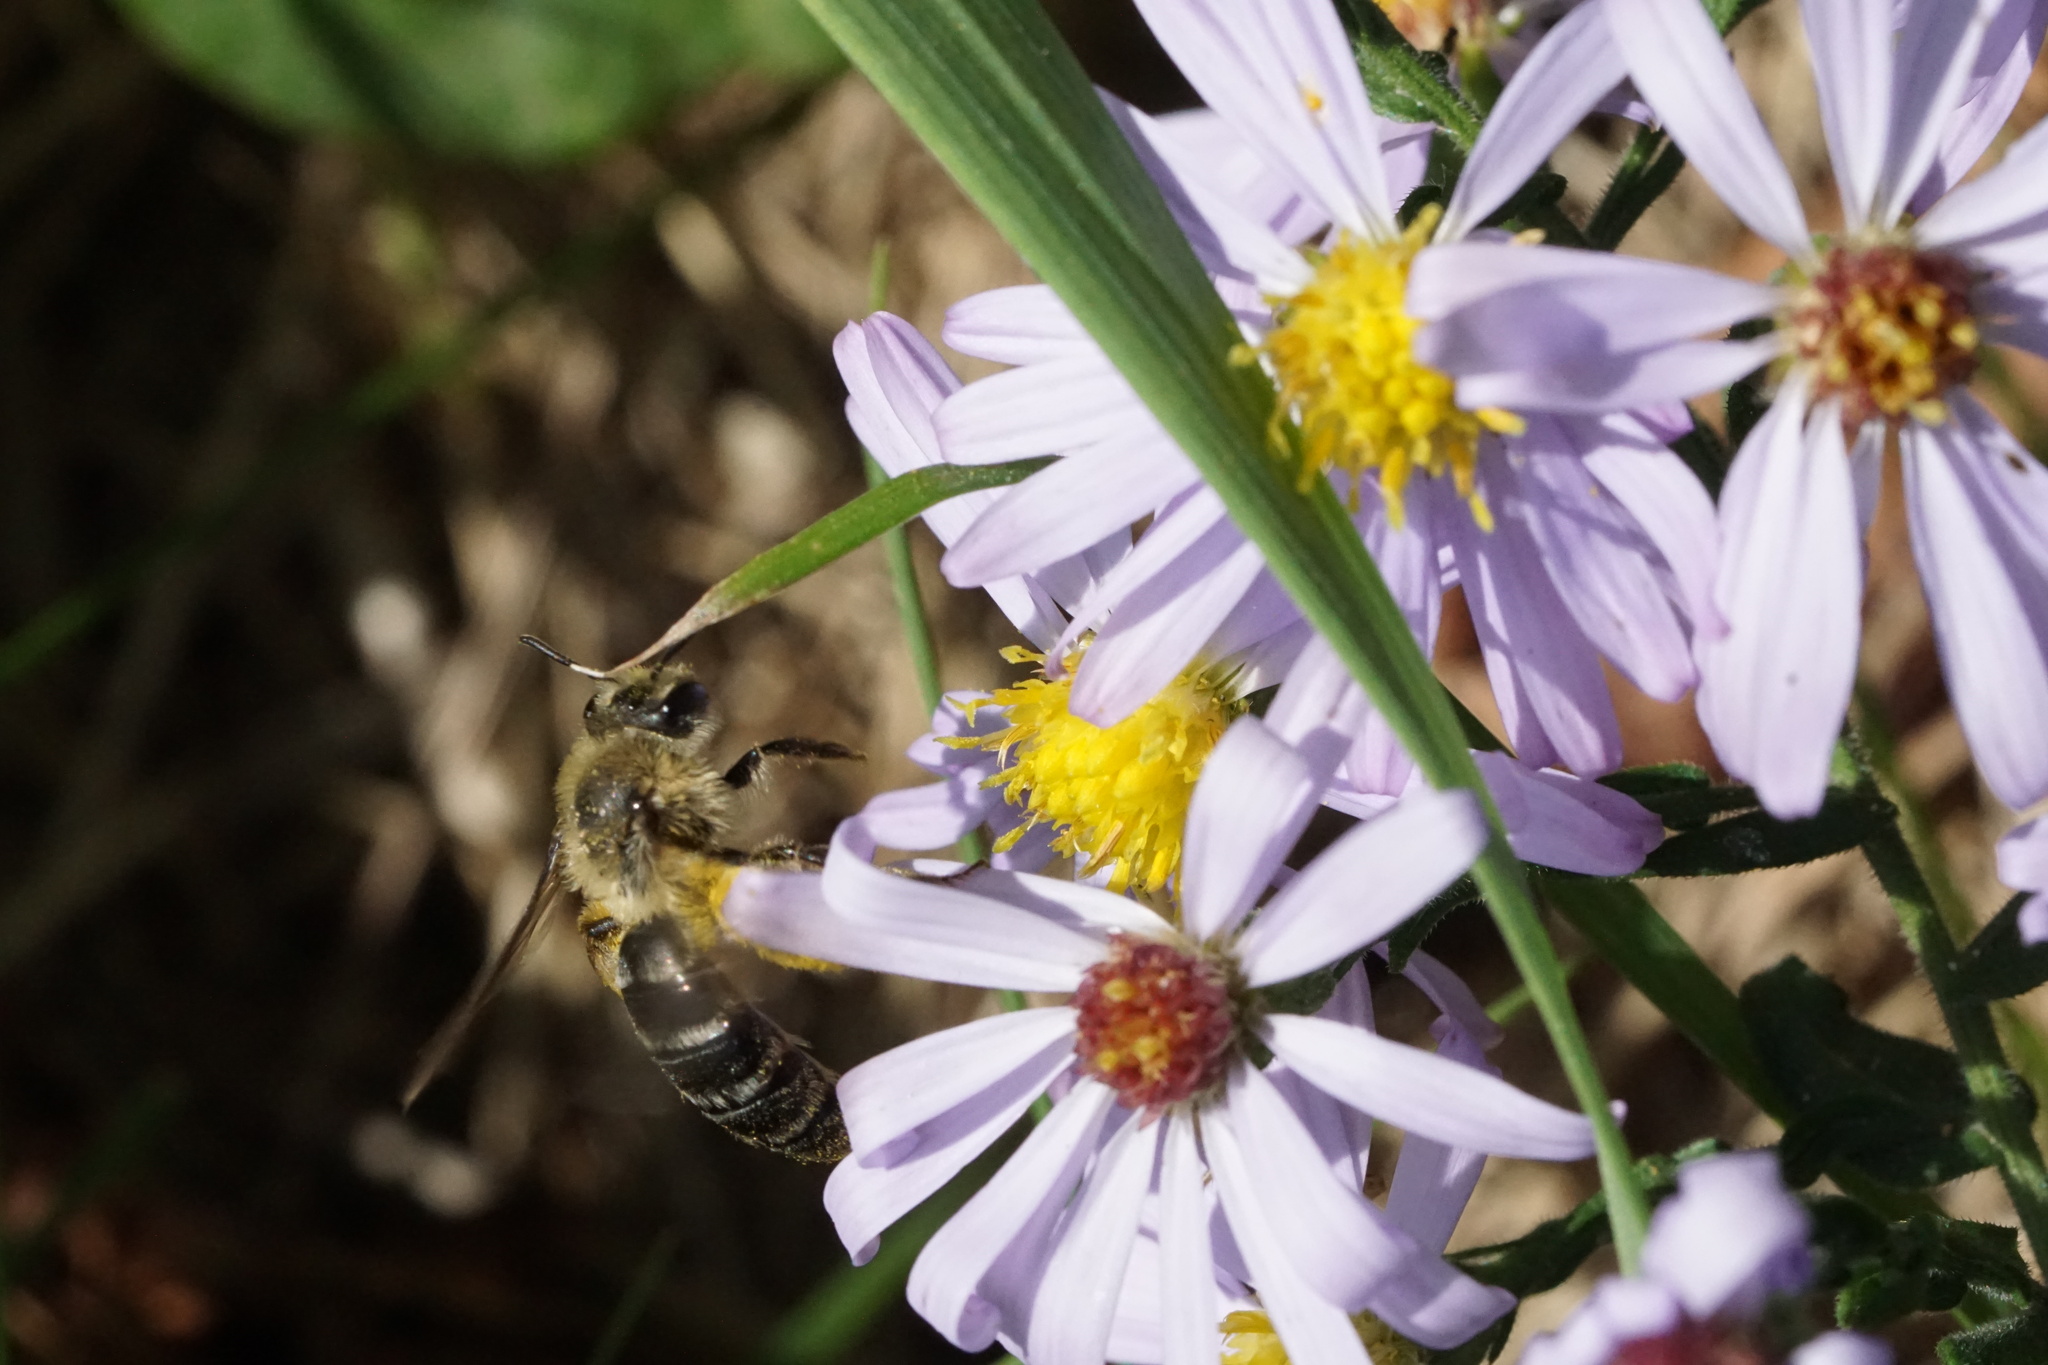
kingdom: Animalia
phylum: Arthropoda
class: Insecta
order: Hymenoptera
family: Andrenidae
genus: Andrena
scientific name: Andrena asteris
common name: Aster mining bee
